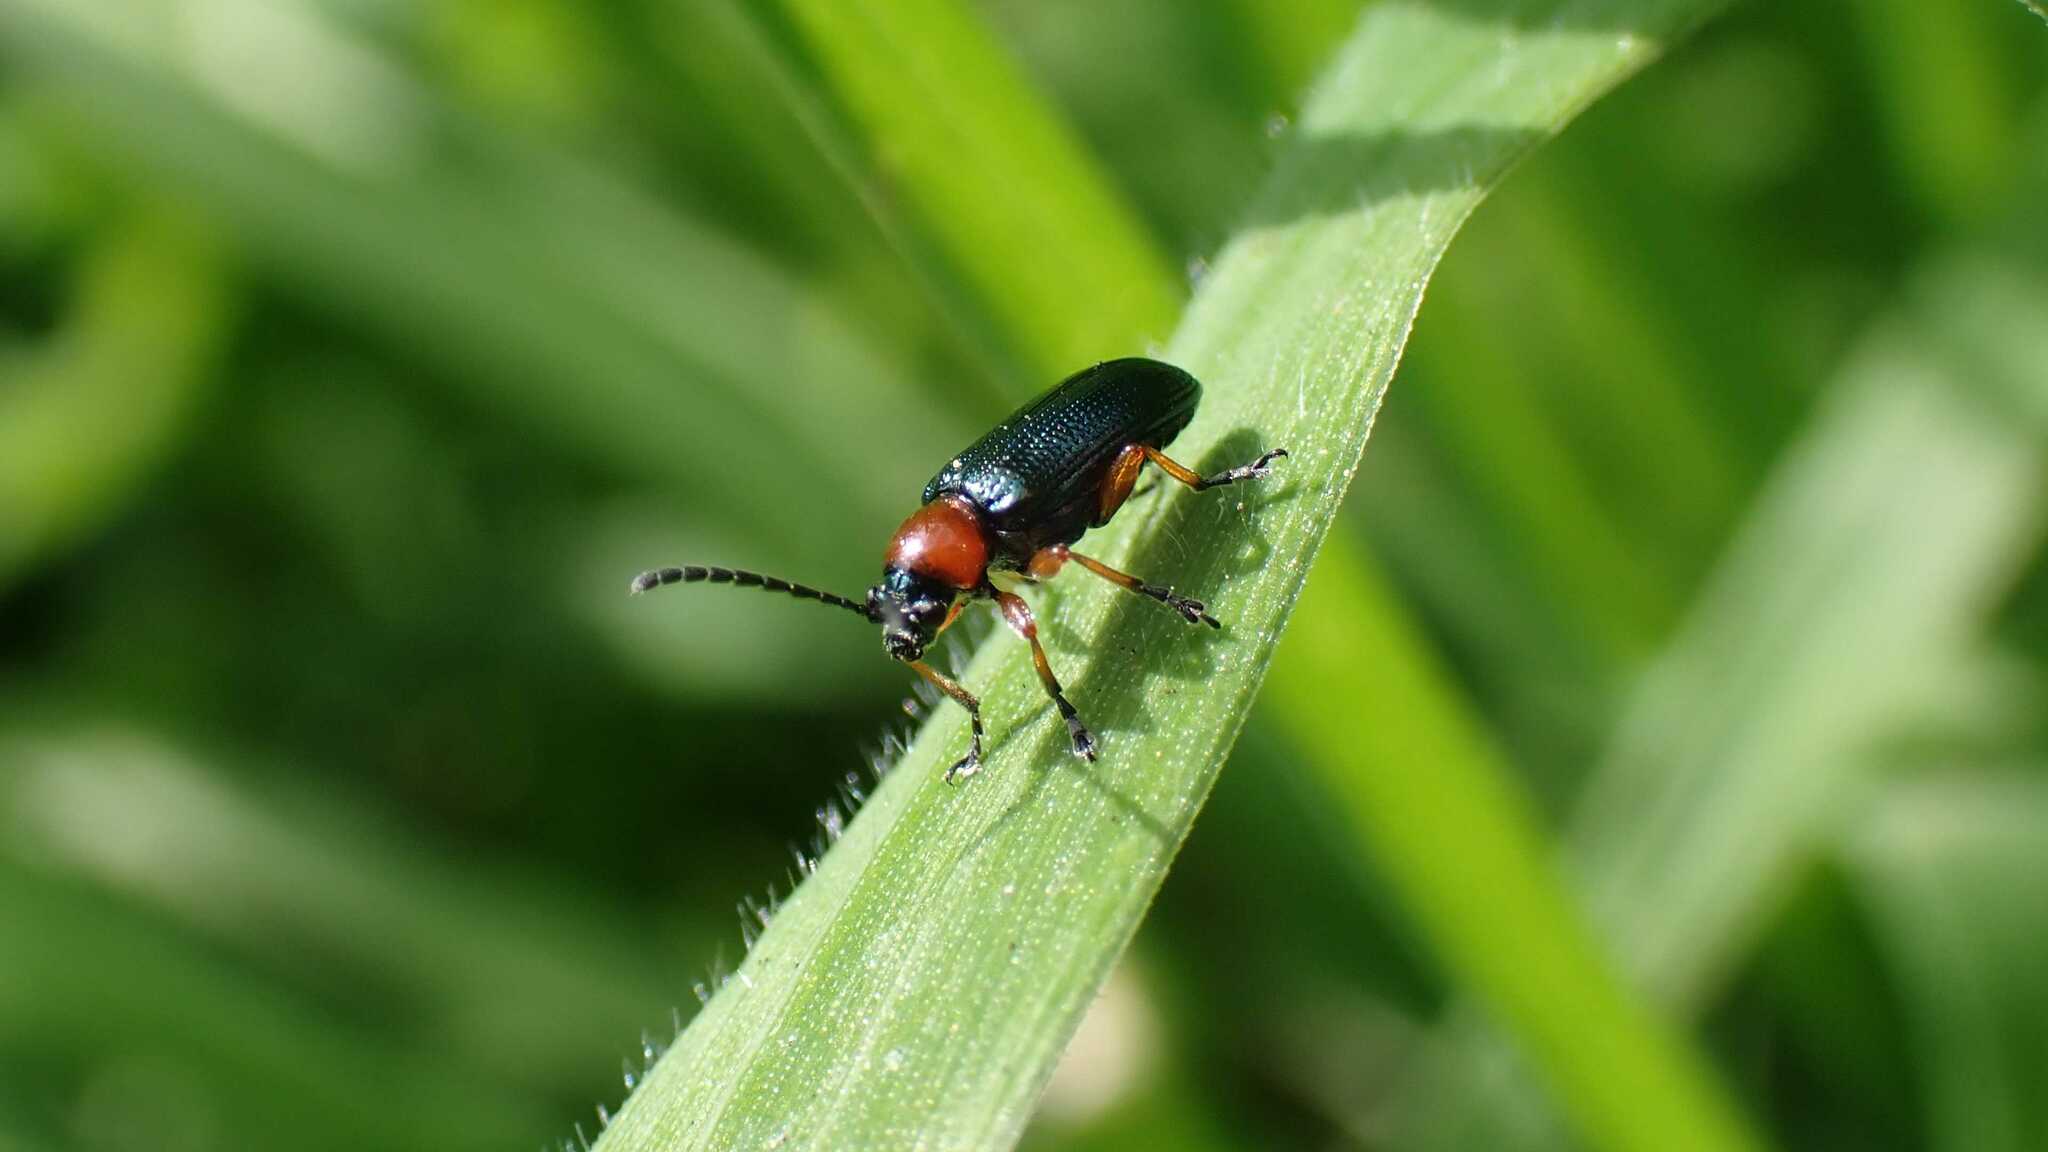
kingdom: Animalia
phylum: Arthropoda
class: Insecta
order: Coleoptera
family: Chrysomelidae
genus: Oulema
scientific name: Oulema
